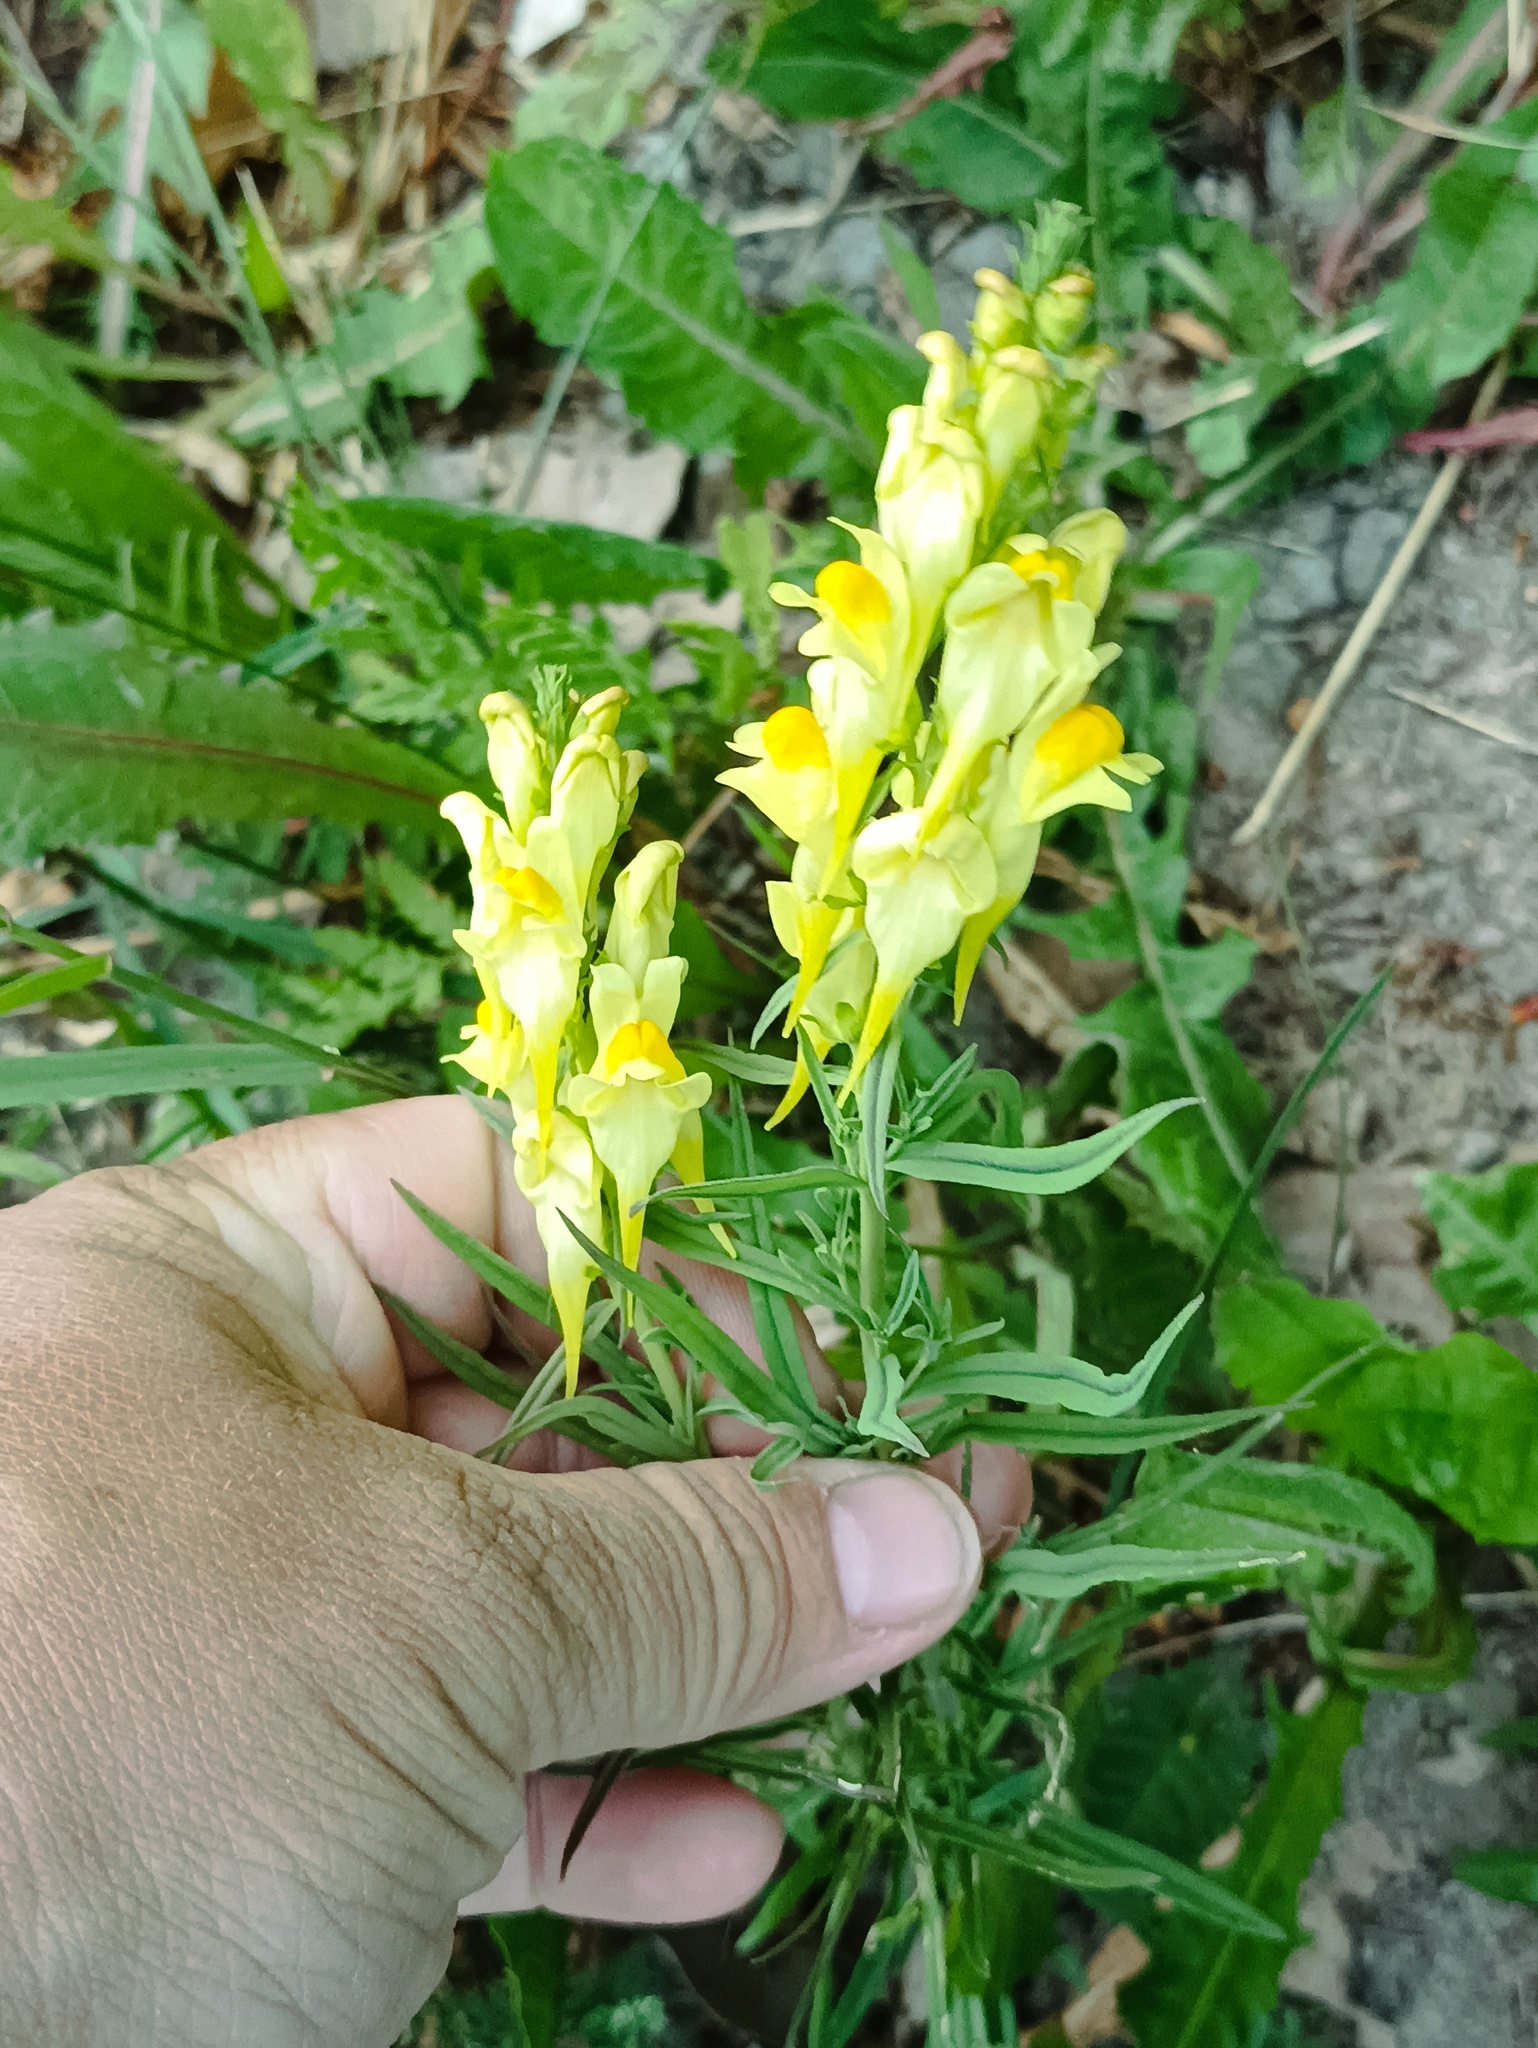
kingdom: Plantae
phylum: Tracheophyta
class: Magnoliopsida
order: Lamiales
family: Plantaginaceae
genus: Linaria
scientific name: Linaria vulgaris
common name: Butter and eggs
